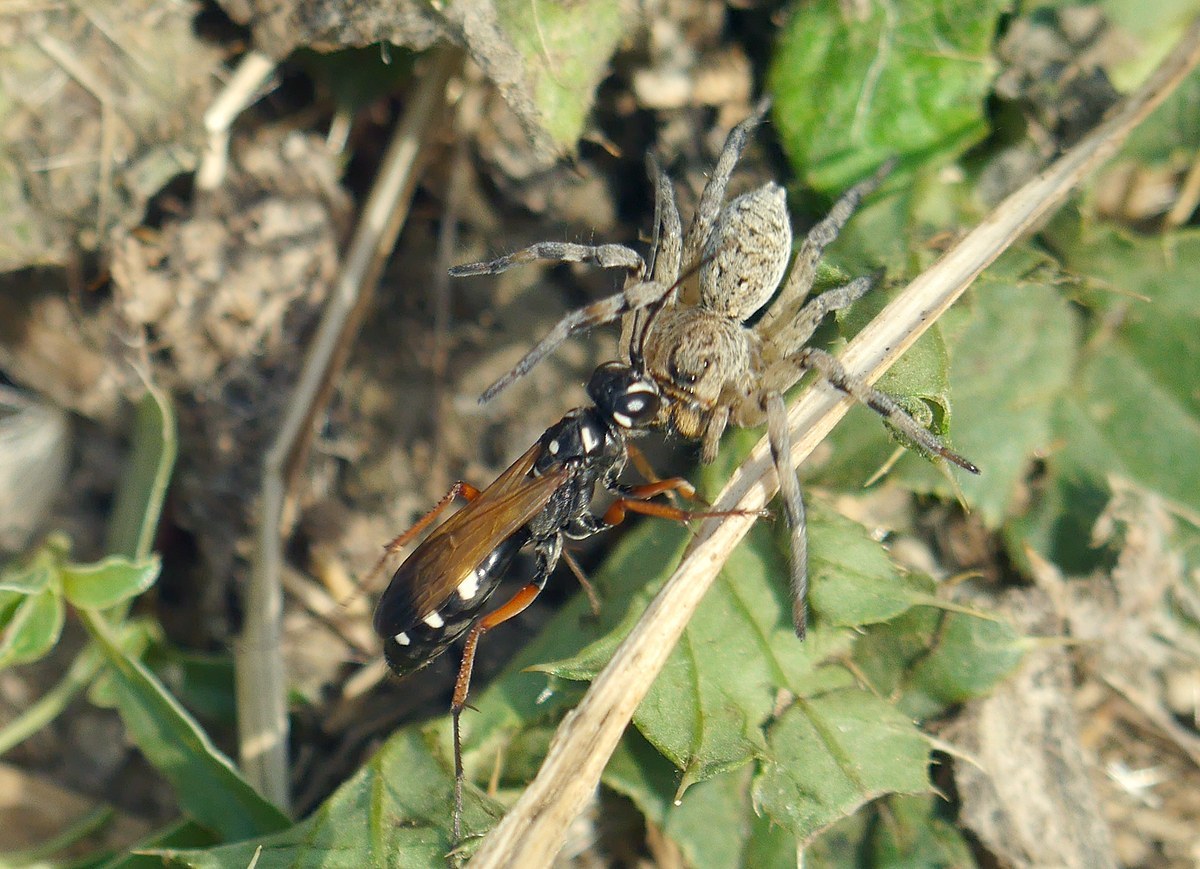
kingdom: Animalia
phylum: Arthropoda
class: Insecta
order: Hymenoptera
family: Pompilidae
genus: Cryptocheilus
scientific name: Cryptocheilus variabilis
